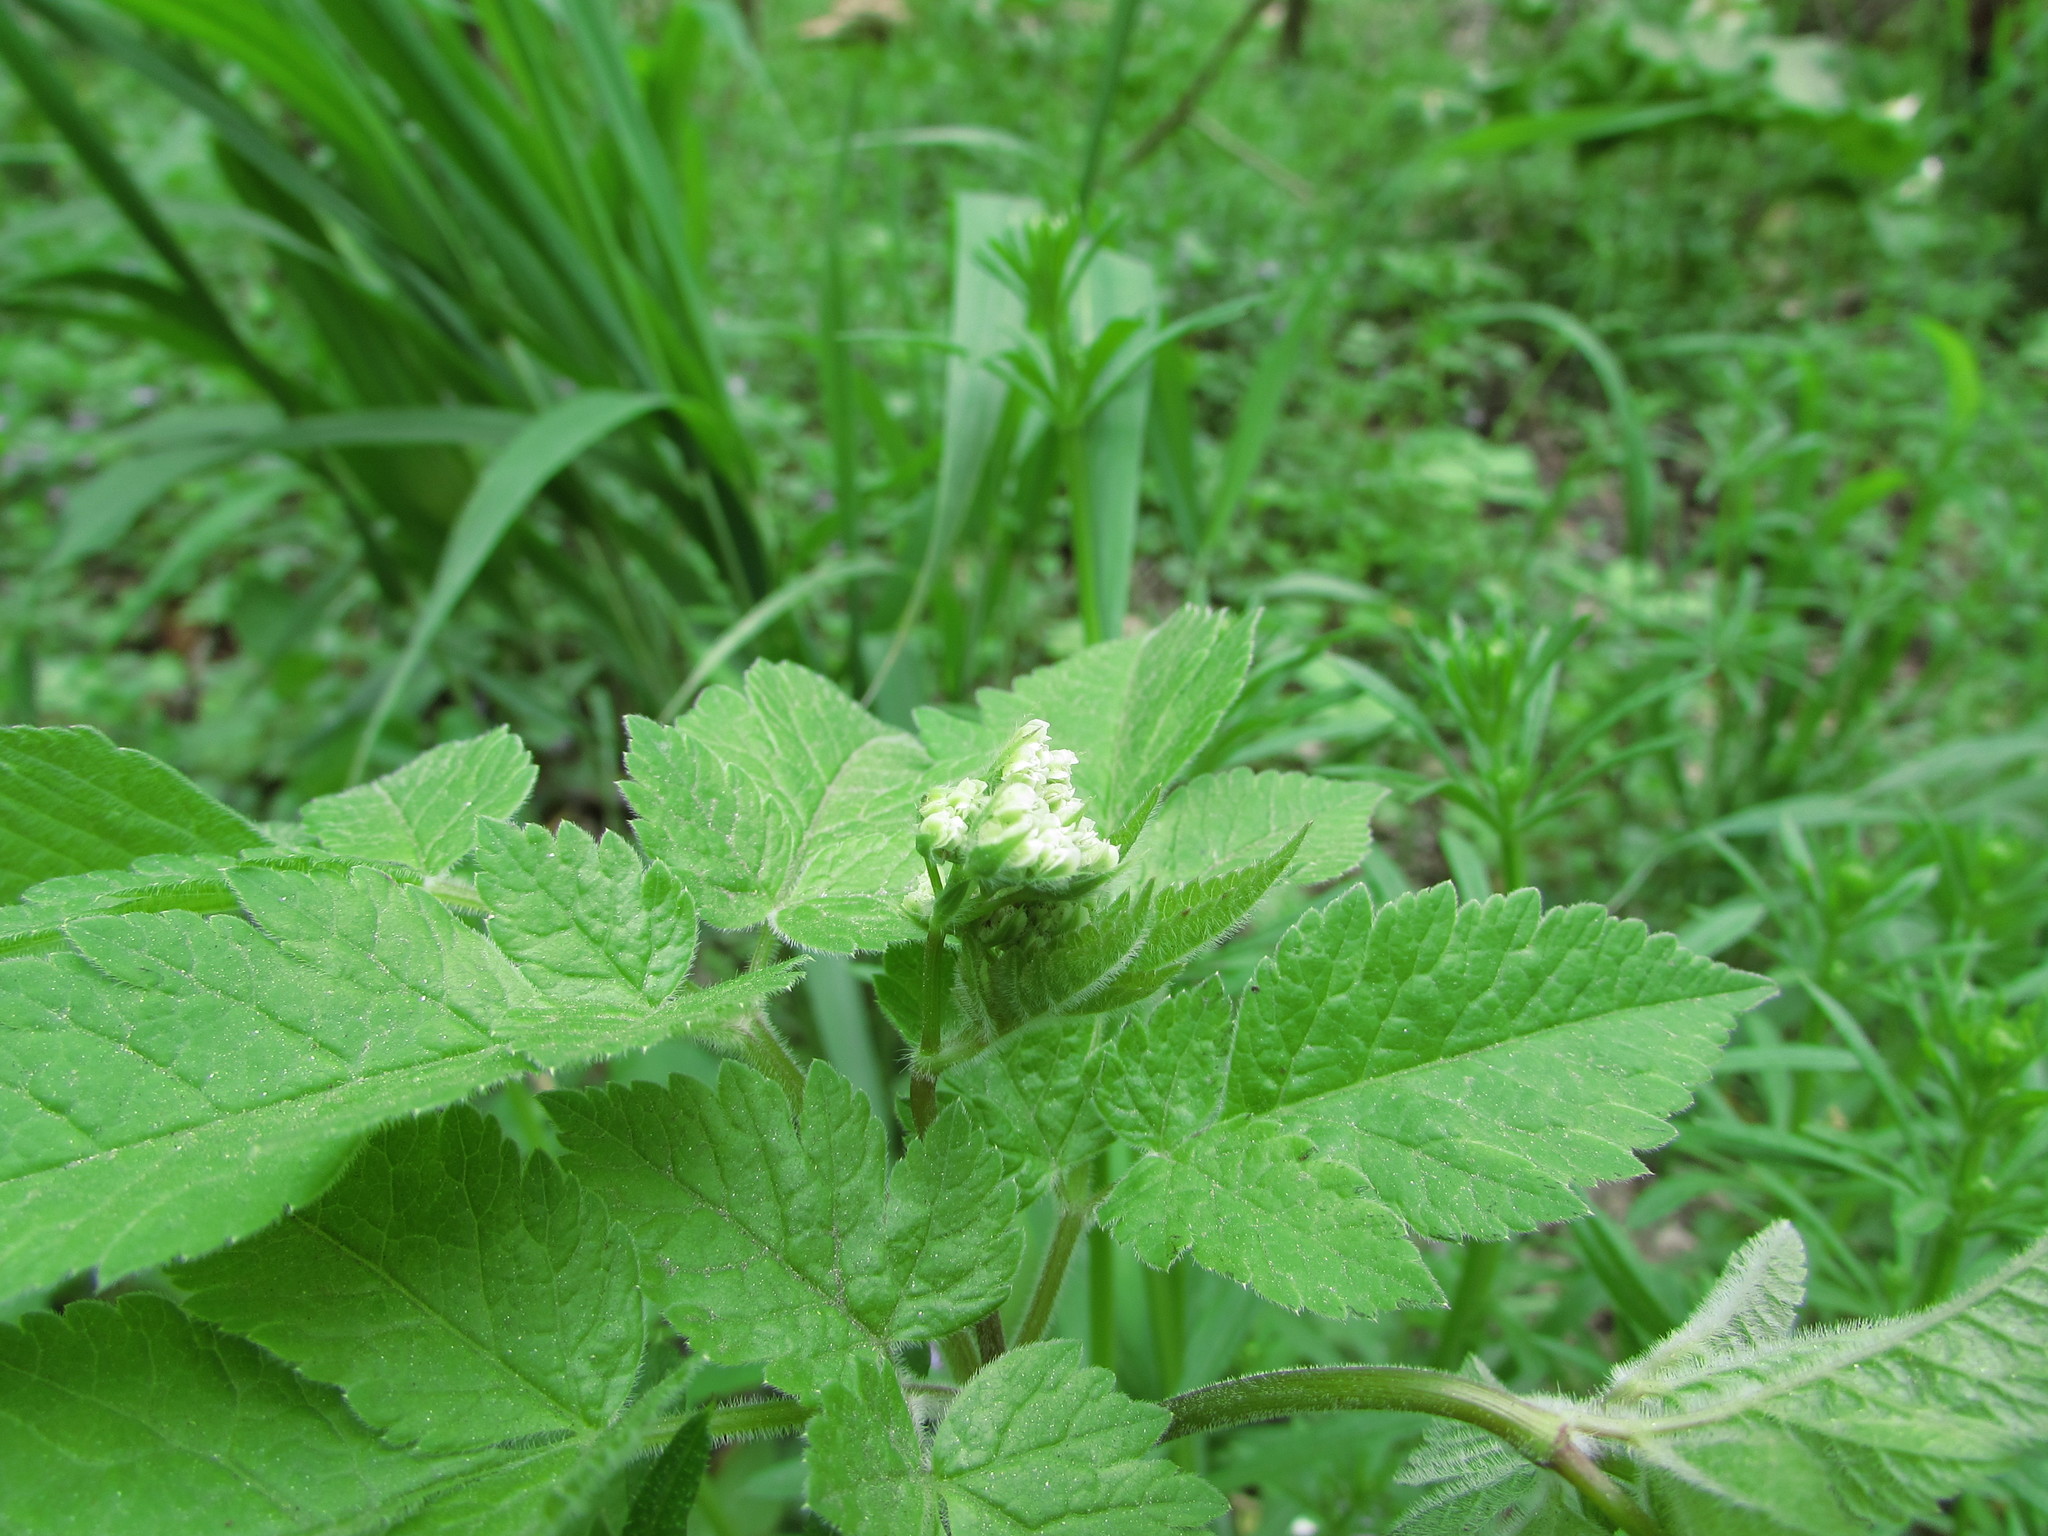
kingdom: Plantae
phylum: Tracheophyta
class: Magnoliopsida
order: Apiales
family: Apiaceae
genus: Osmorhiza
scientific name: Osmorhiza claytonii
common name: Hairy sweet cicely
